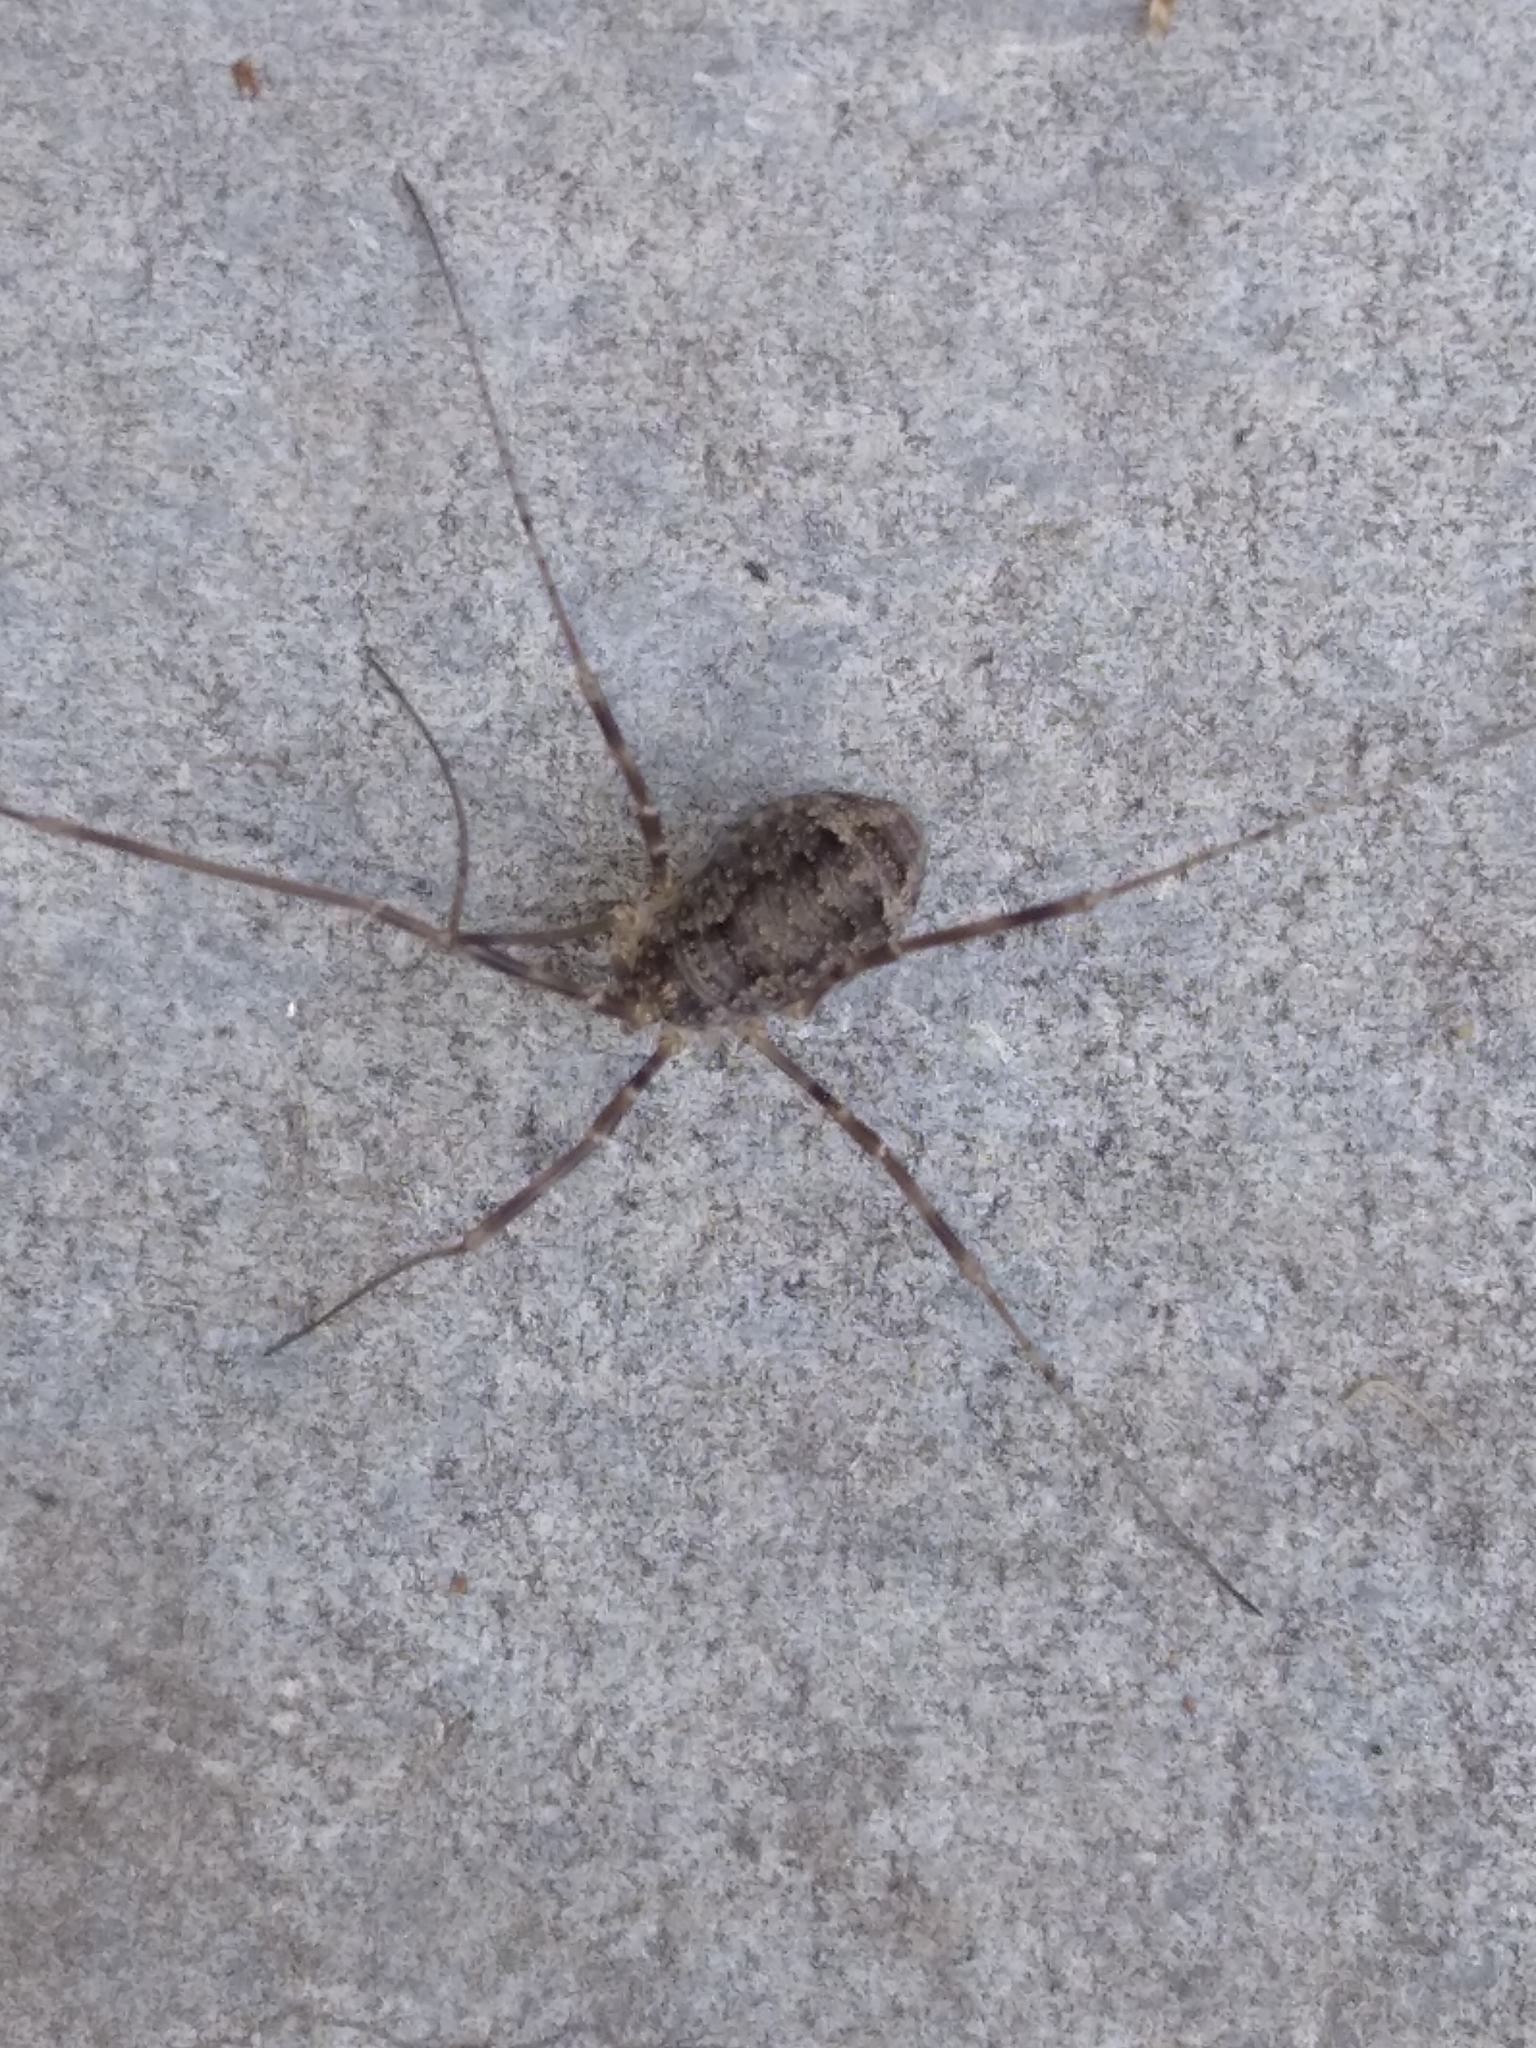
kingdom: Animalia
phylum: Arthropoda
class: Arachnida
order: Opiliones
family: Phalangiidae
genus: Opilio
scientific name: Opilio parietinus
